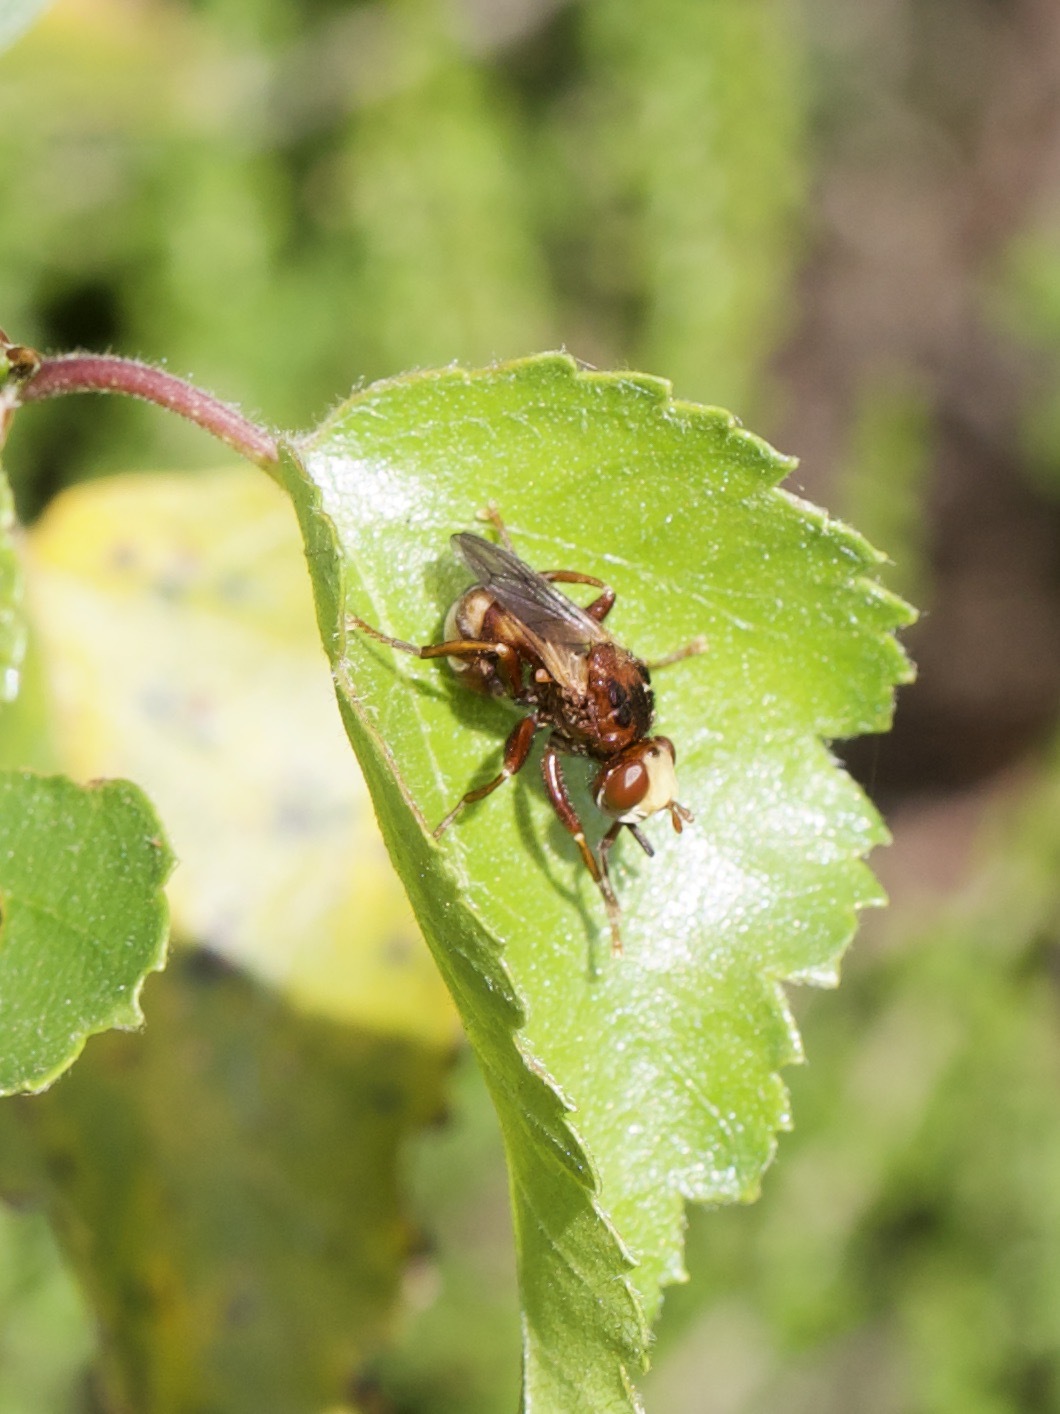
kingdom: Animalia
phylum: Arthropoda
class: Insecta
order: Diptera
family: Conopidae
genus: Sicus
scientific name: Sicus ferrugineus
